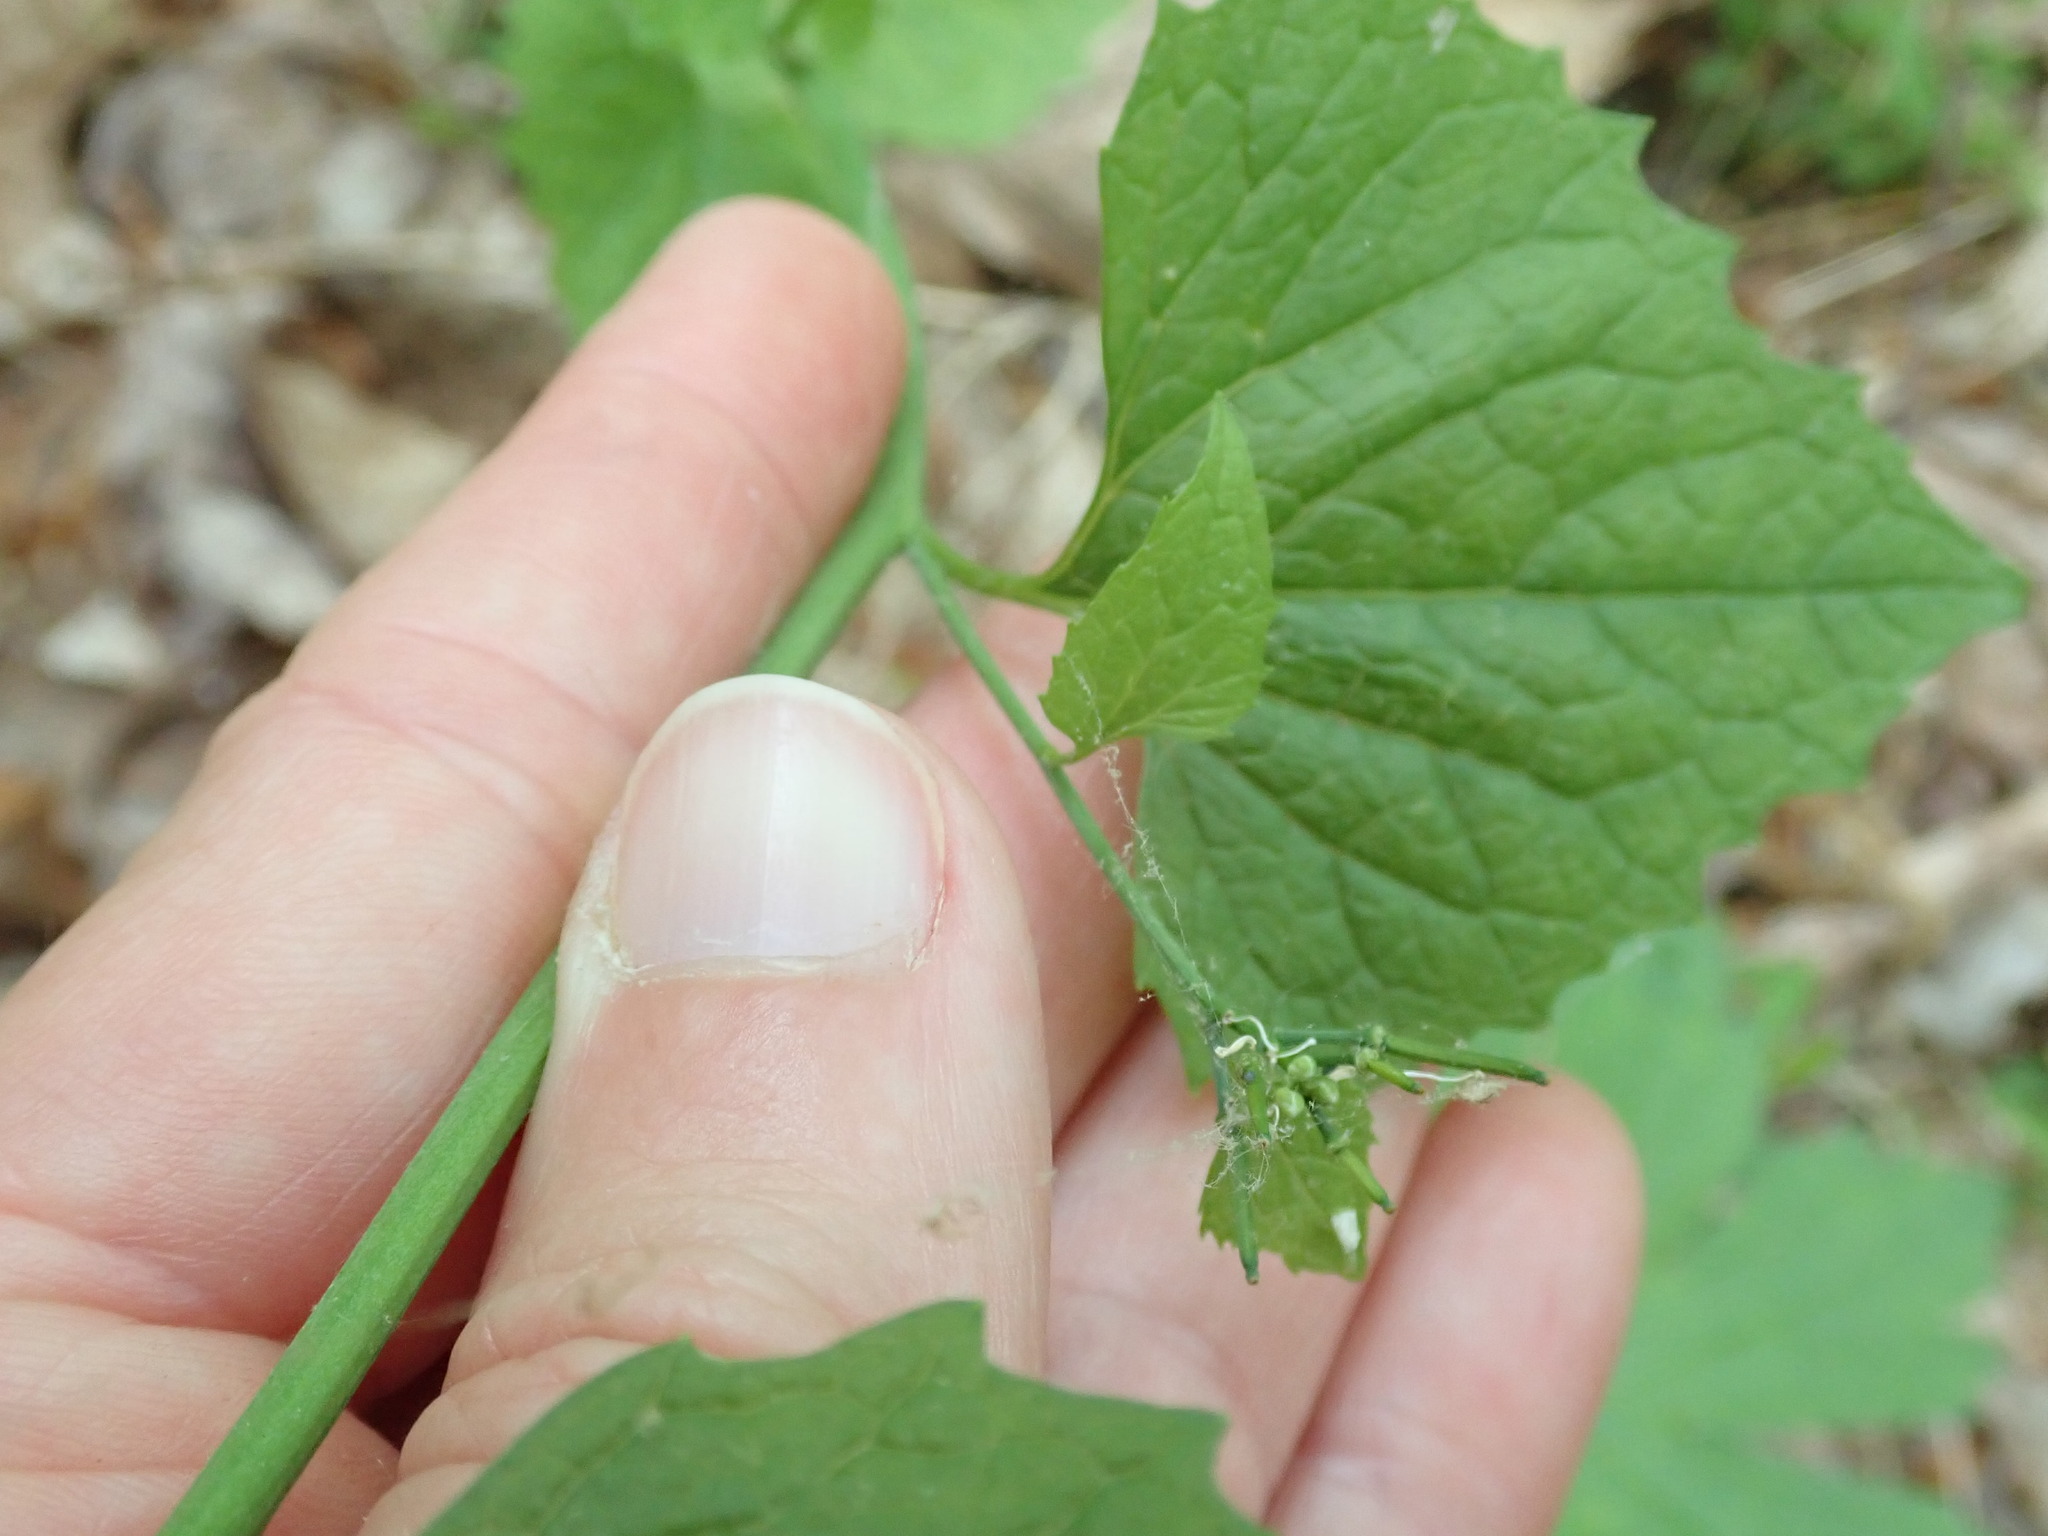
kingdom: Plantae
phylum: Tracheophyta
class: Magnoliopsida
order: Brassicales
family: Brassicaceae
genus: Alliaria
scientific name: Alliaria petiolata
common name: Garlic mustard
